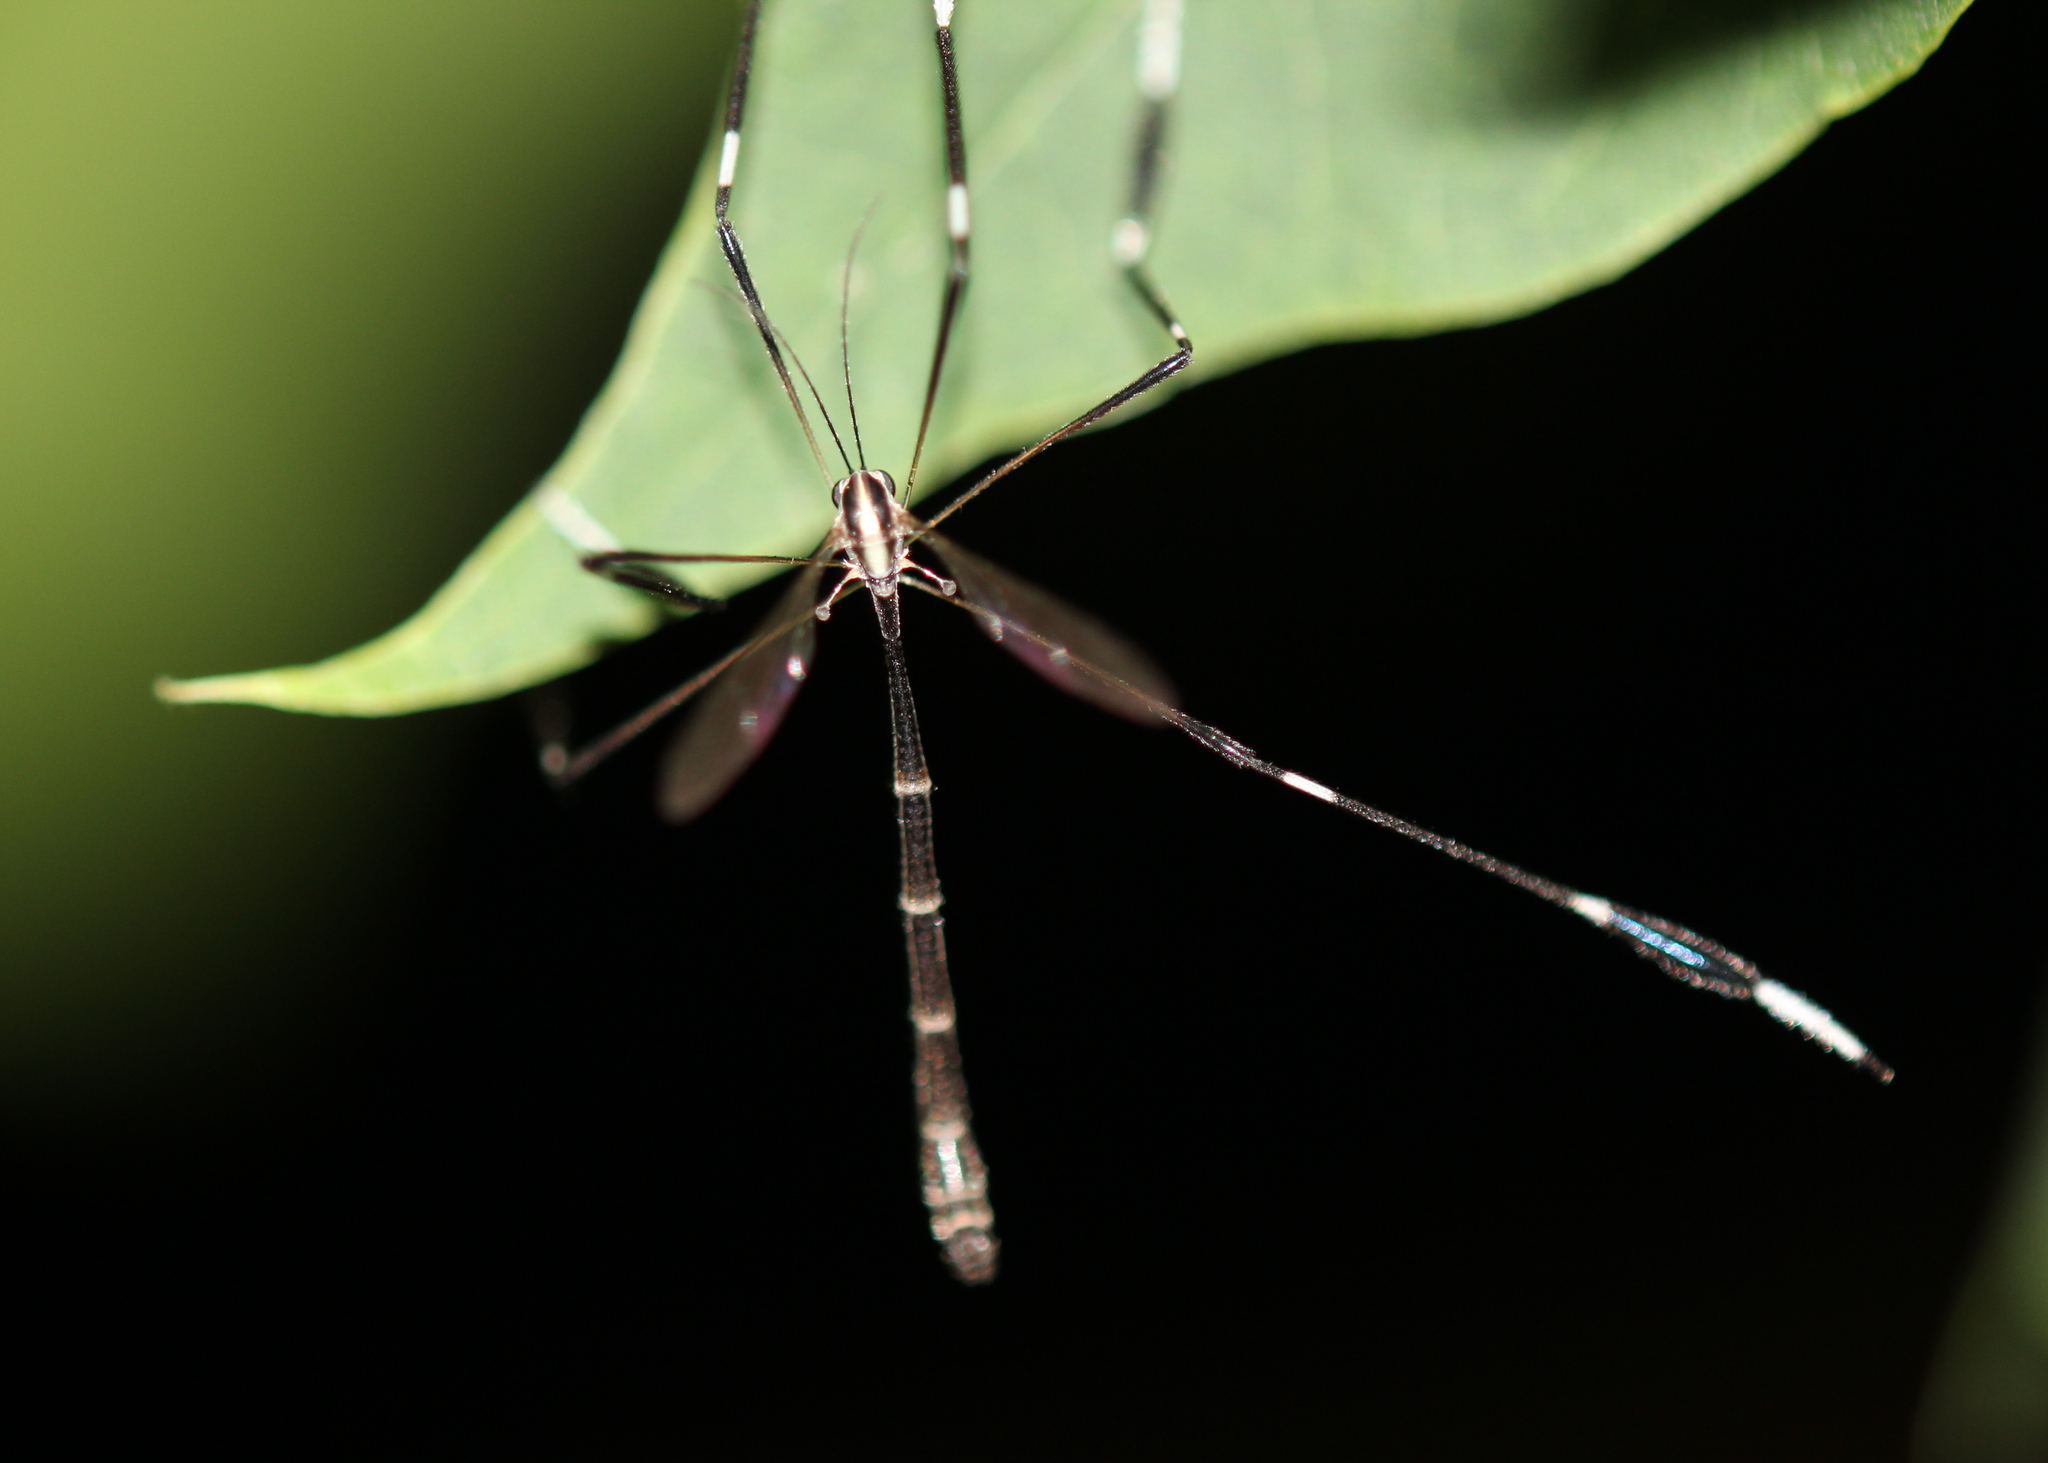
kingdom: Animalia
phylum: Arthropoda
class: Insecta
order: Diptera
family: Ptychopteridae
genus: Bittacomorpha
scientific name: Bittacomorpha clavipes
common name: Eastern phantom crane fly
